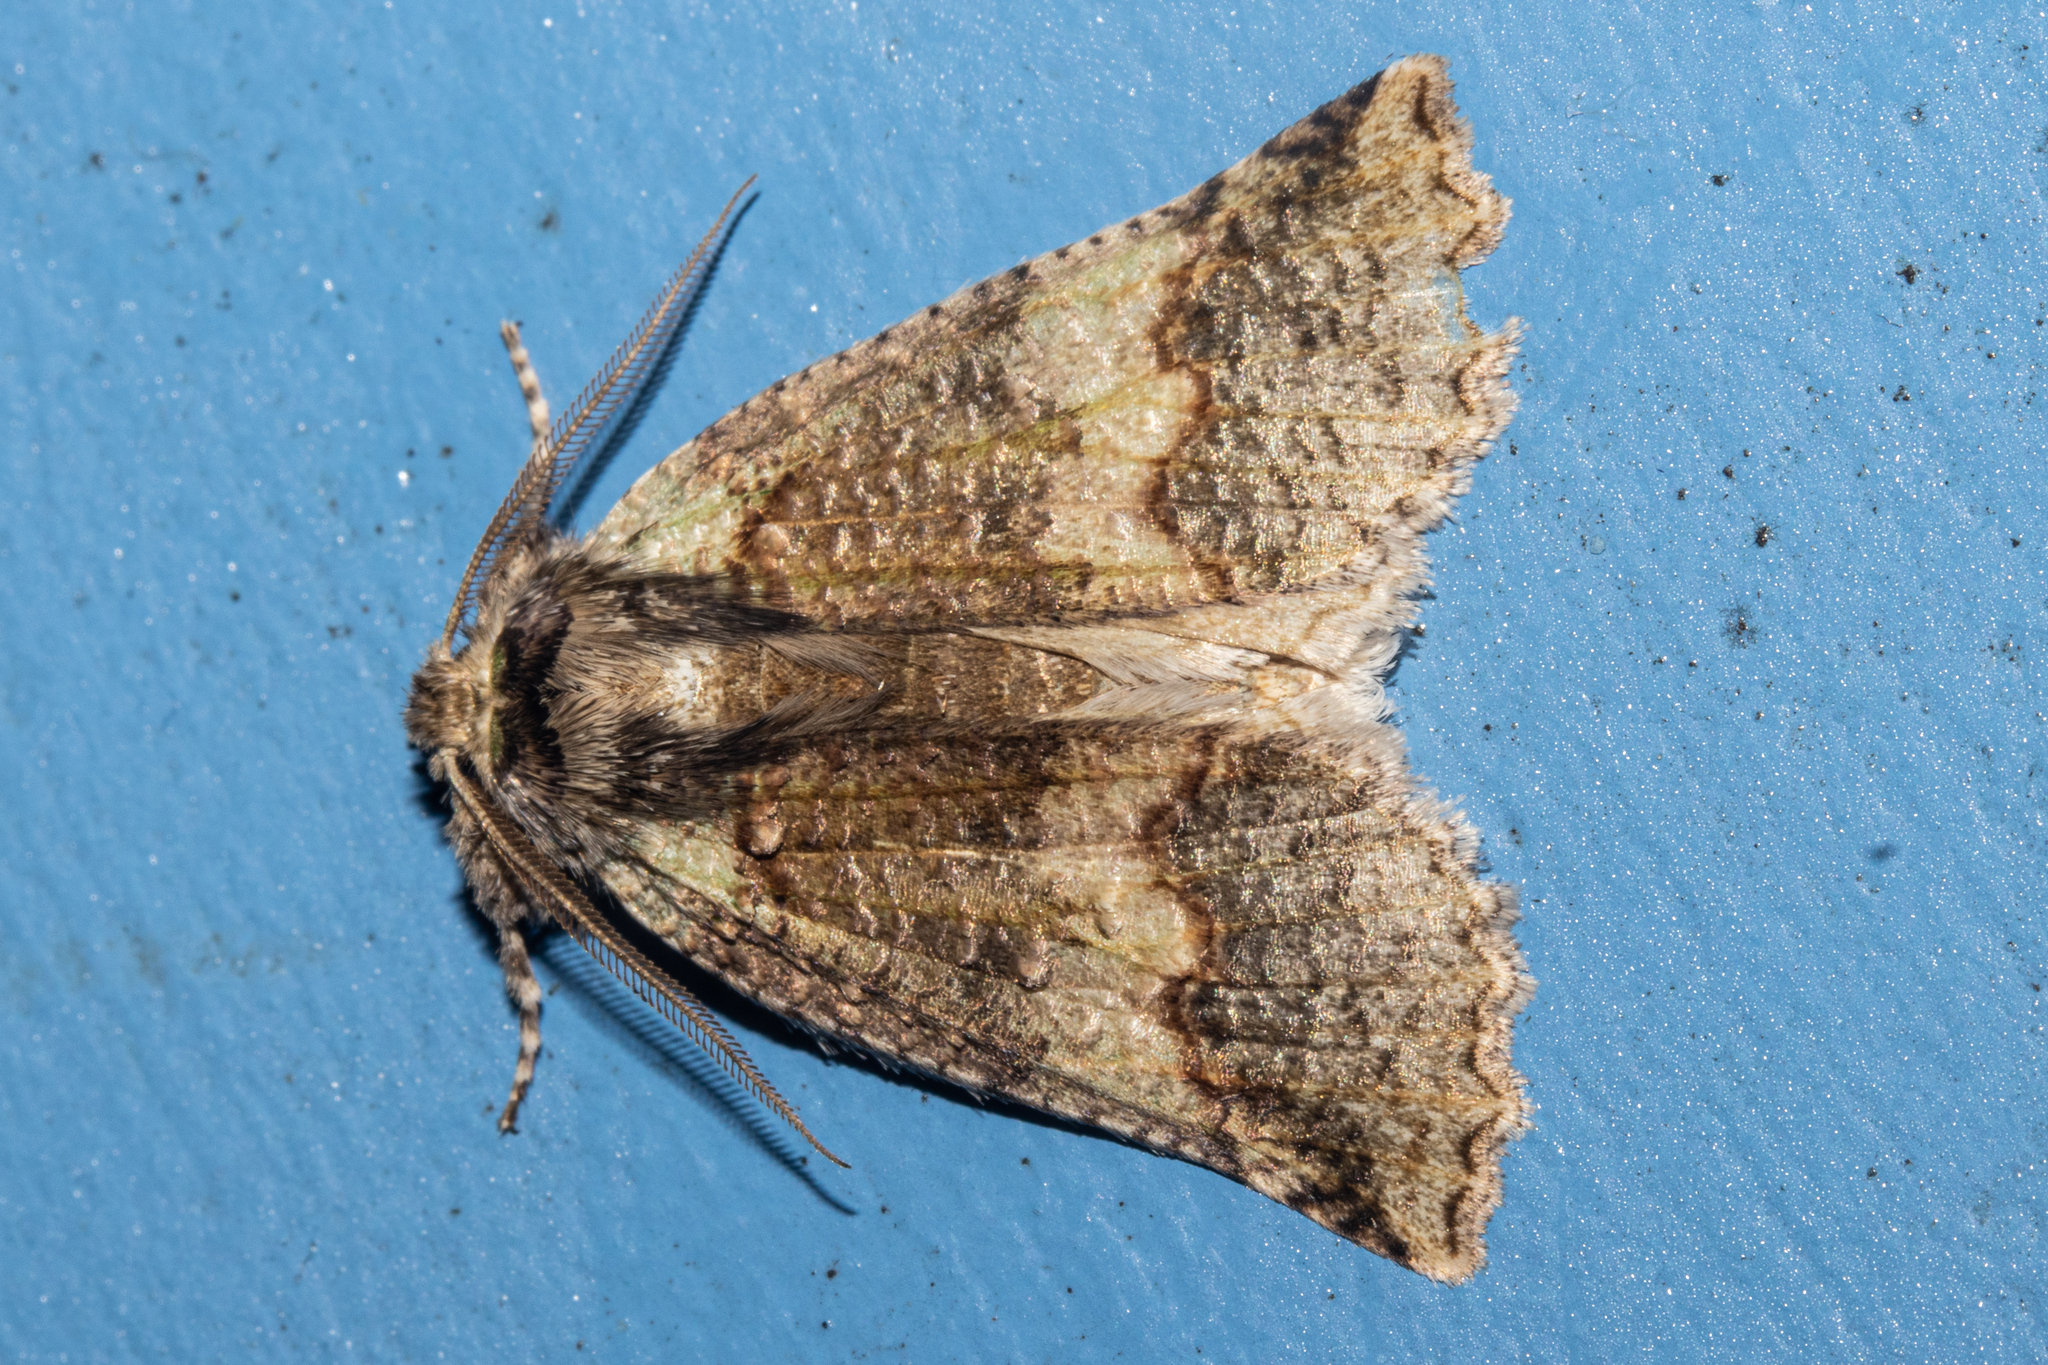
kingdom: Animalia
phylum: Arthropoda
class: Insecta
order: Lepidoptera
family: Geometridae
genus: Declana
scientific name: Declana floccosa
